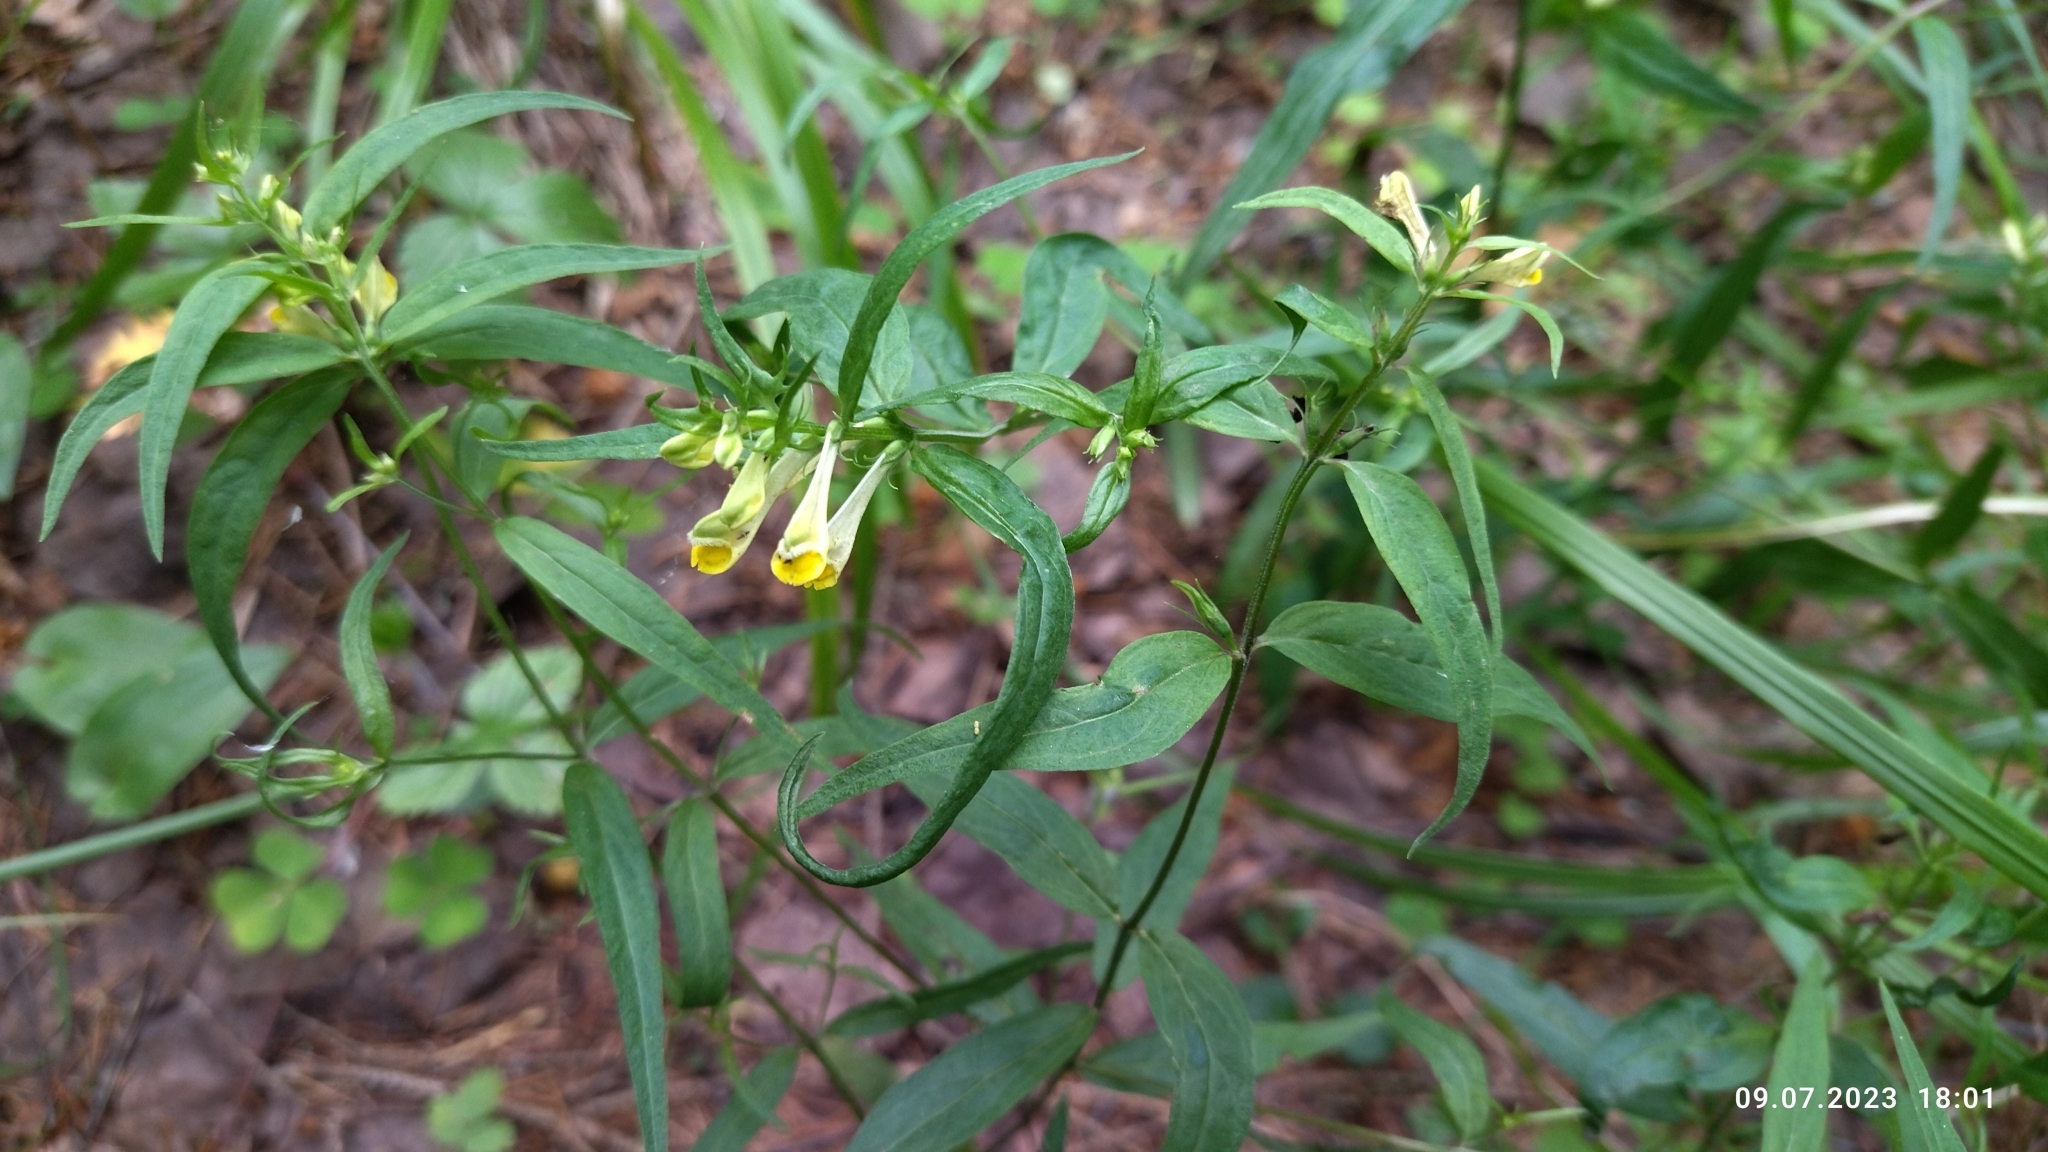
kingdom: Plantae
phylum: Tracheophyta
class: Magnoliopsida
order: Lamiales
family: Orobanchaceae
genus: Melampyrum
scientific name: Melampyrum pratense
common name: Common cow-wheat
